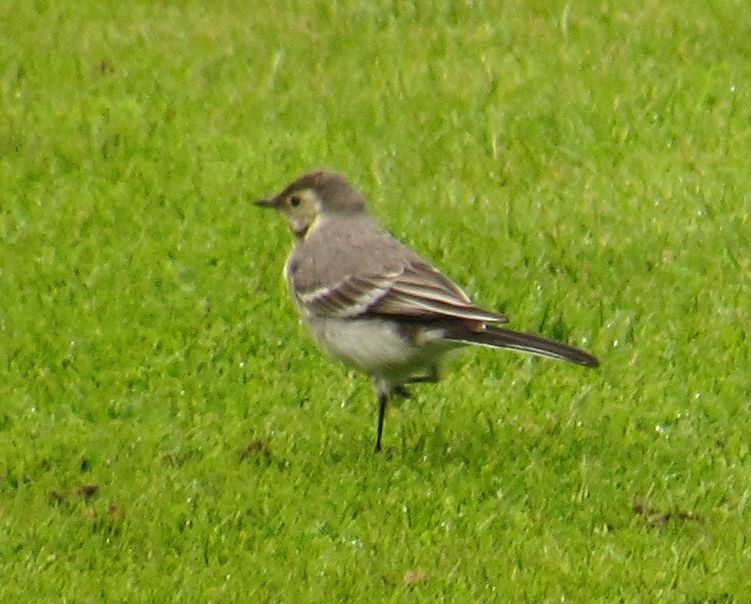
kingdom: Animalia
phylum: Chordata
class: Aves
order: Passeriformes
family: Motacillidae
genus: Motacilla
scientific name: Motacilla alba
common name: White wagtail
